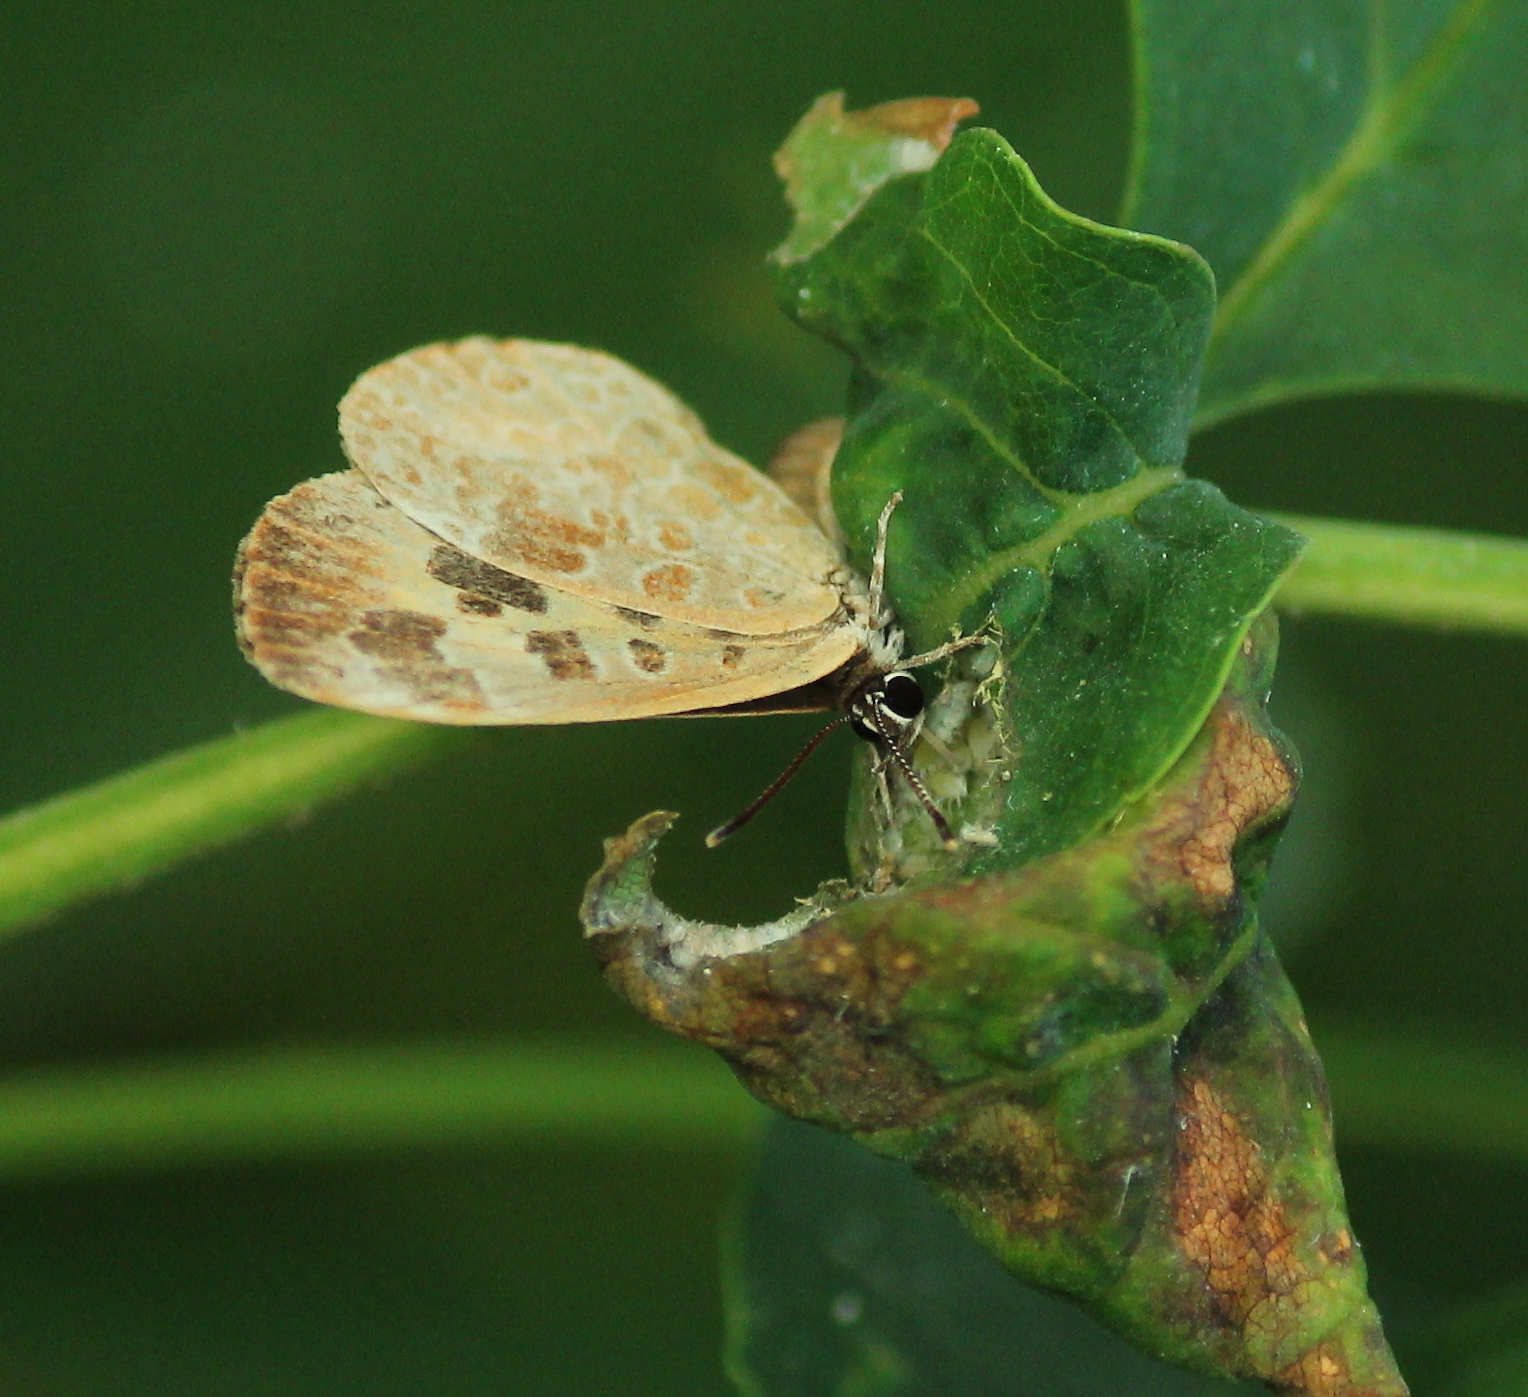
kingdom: Animalia
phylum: Arthropoda
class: Insecta
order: Lepidoptera
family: Lycaenidae
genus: Feniseca
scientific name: Feniseca tarquinius
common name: Harvester
